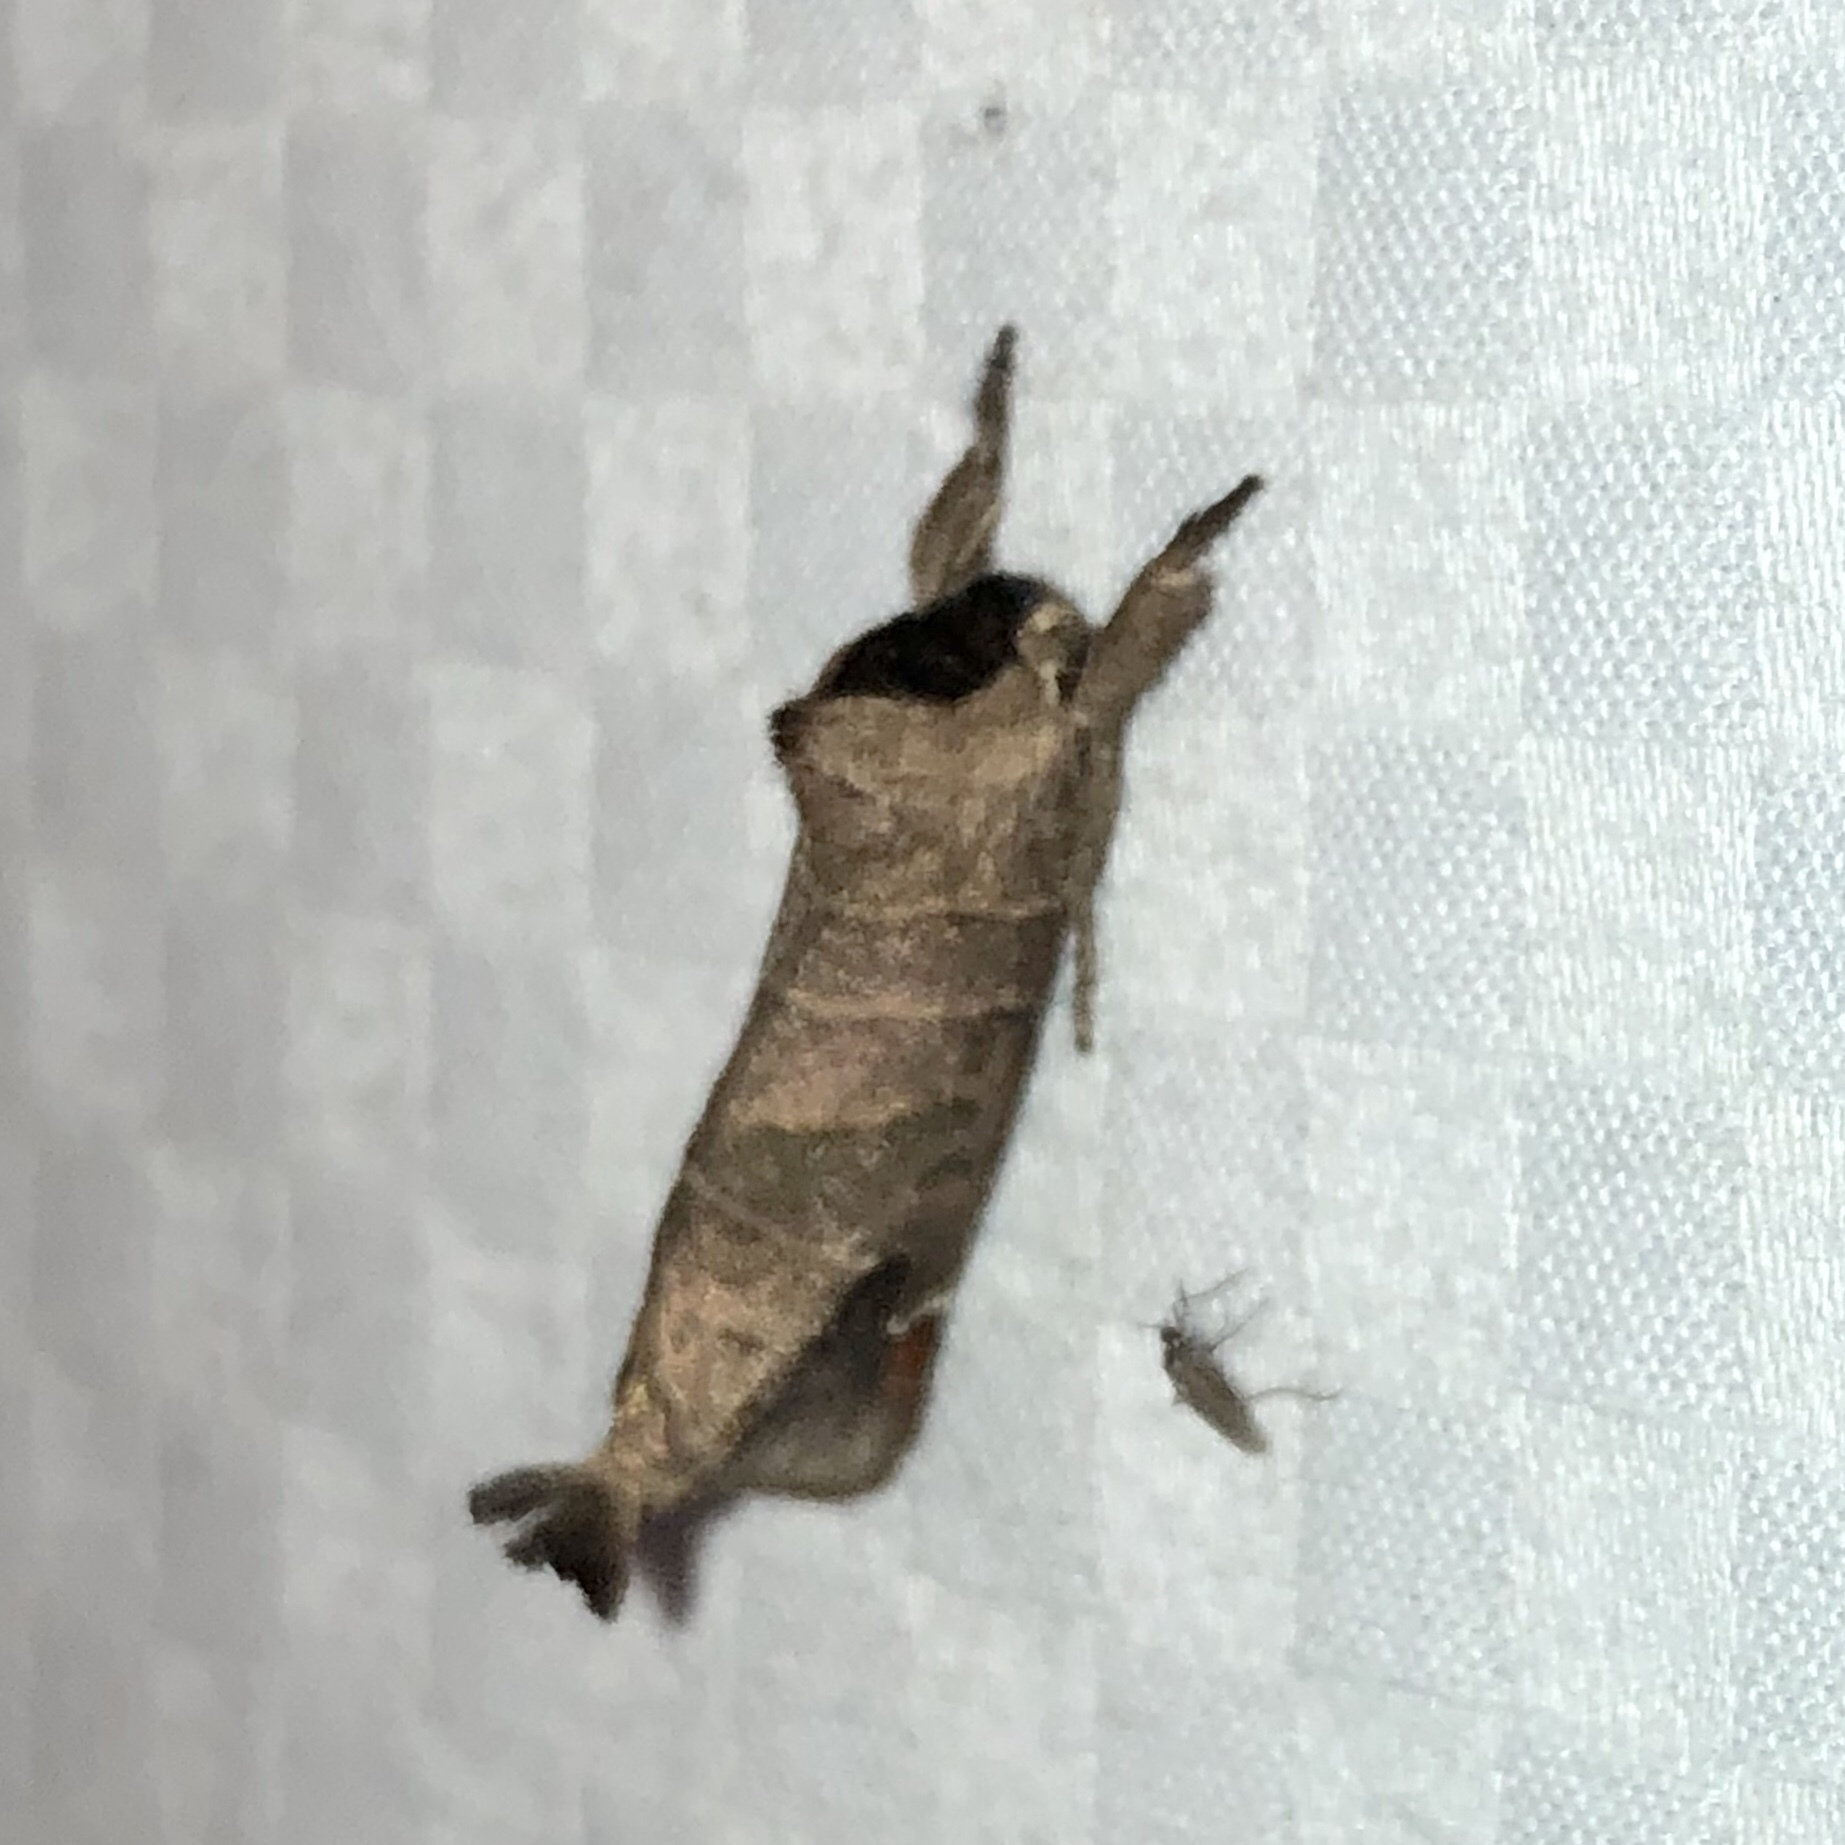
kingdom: Animalia
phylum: Arthropoda
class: Insecta
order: Lepidoptera
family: Notodontidae
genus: Clostera
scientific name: Clostera albosigma
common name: Sigmoid prominent
